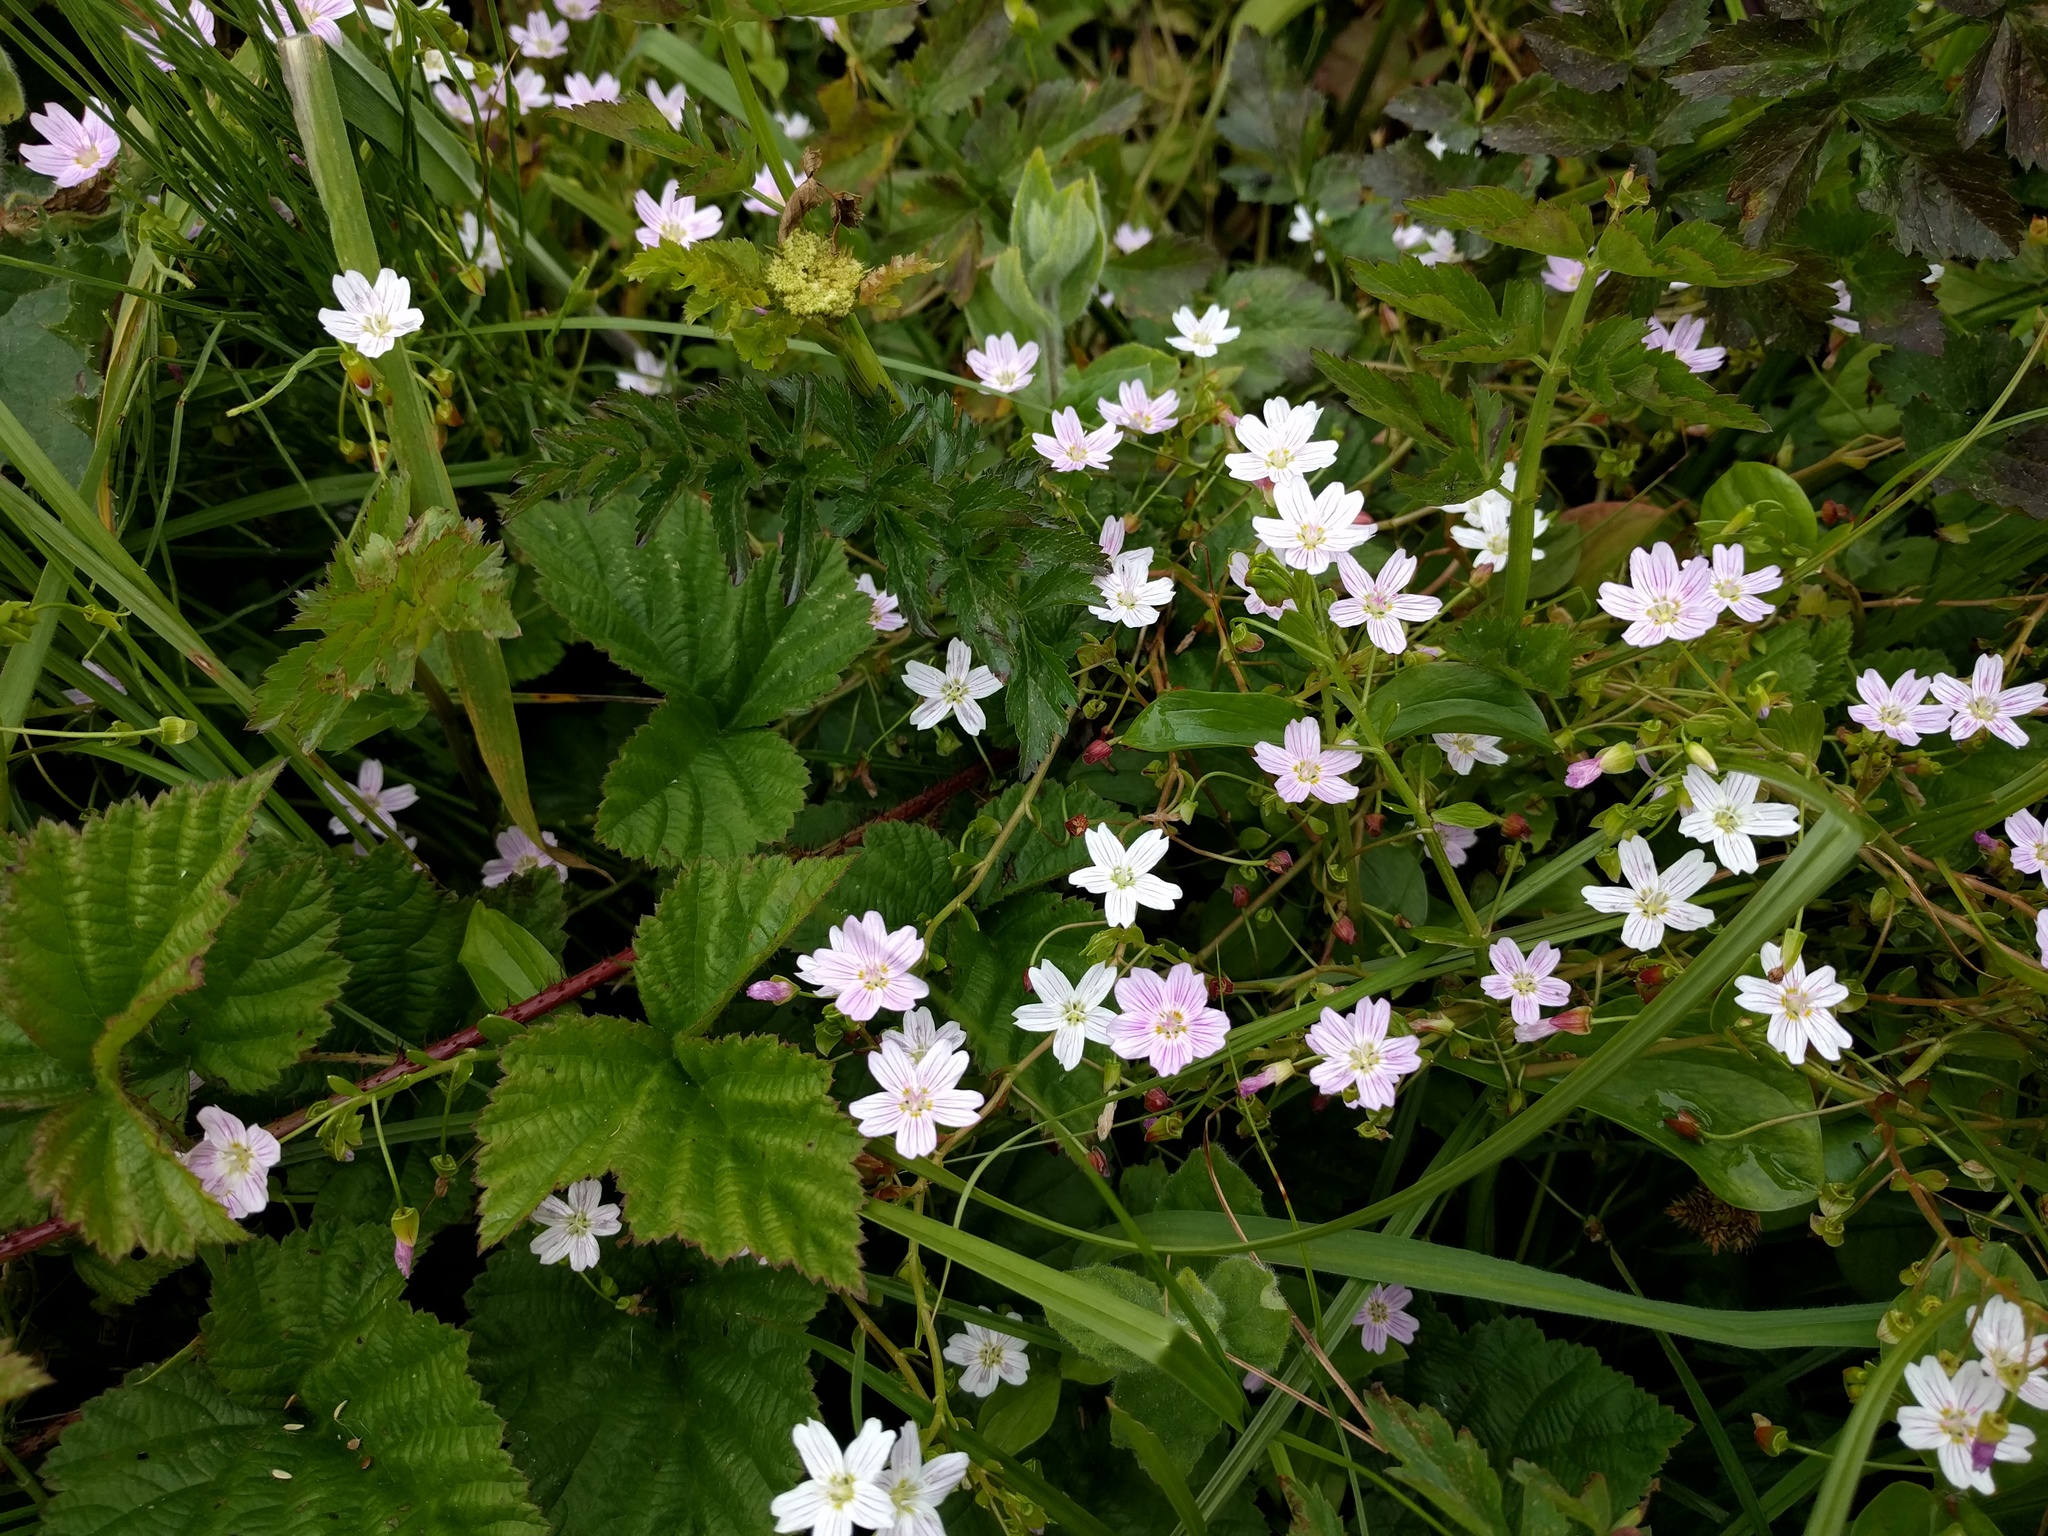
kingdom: Plantae
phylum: Tracheophyta
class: Magnoliopsida
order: Caryophyllales
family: Montiaceae
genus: Claytonia
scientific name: Claytonia sibirica
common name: Pink purslane
